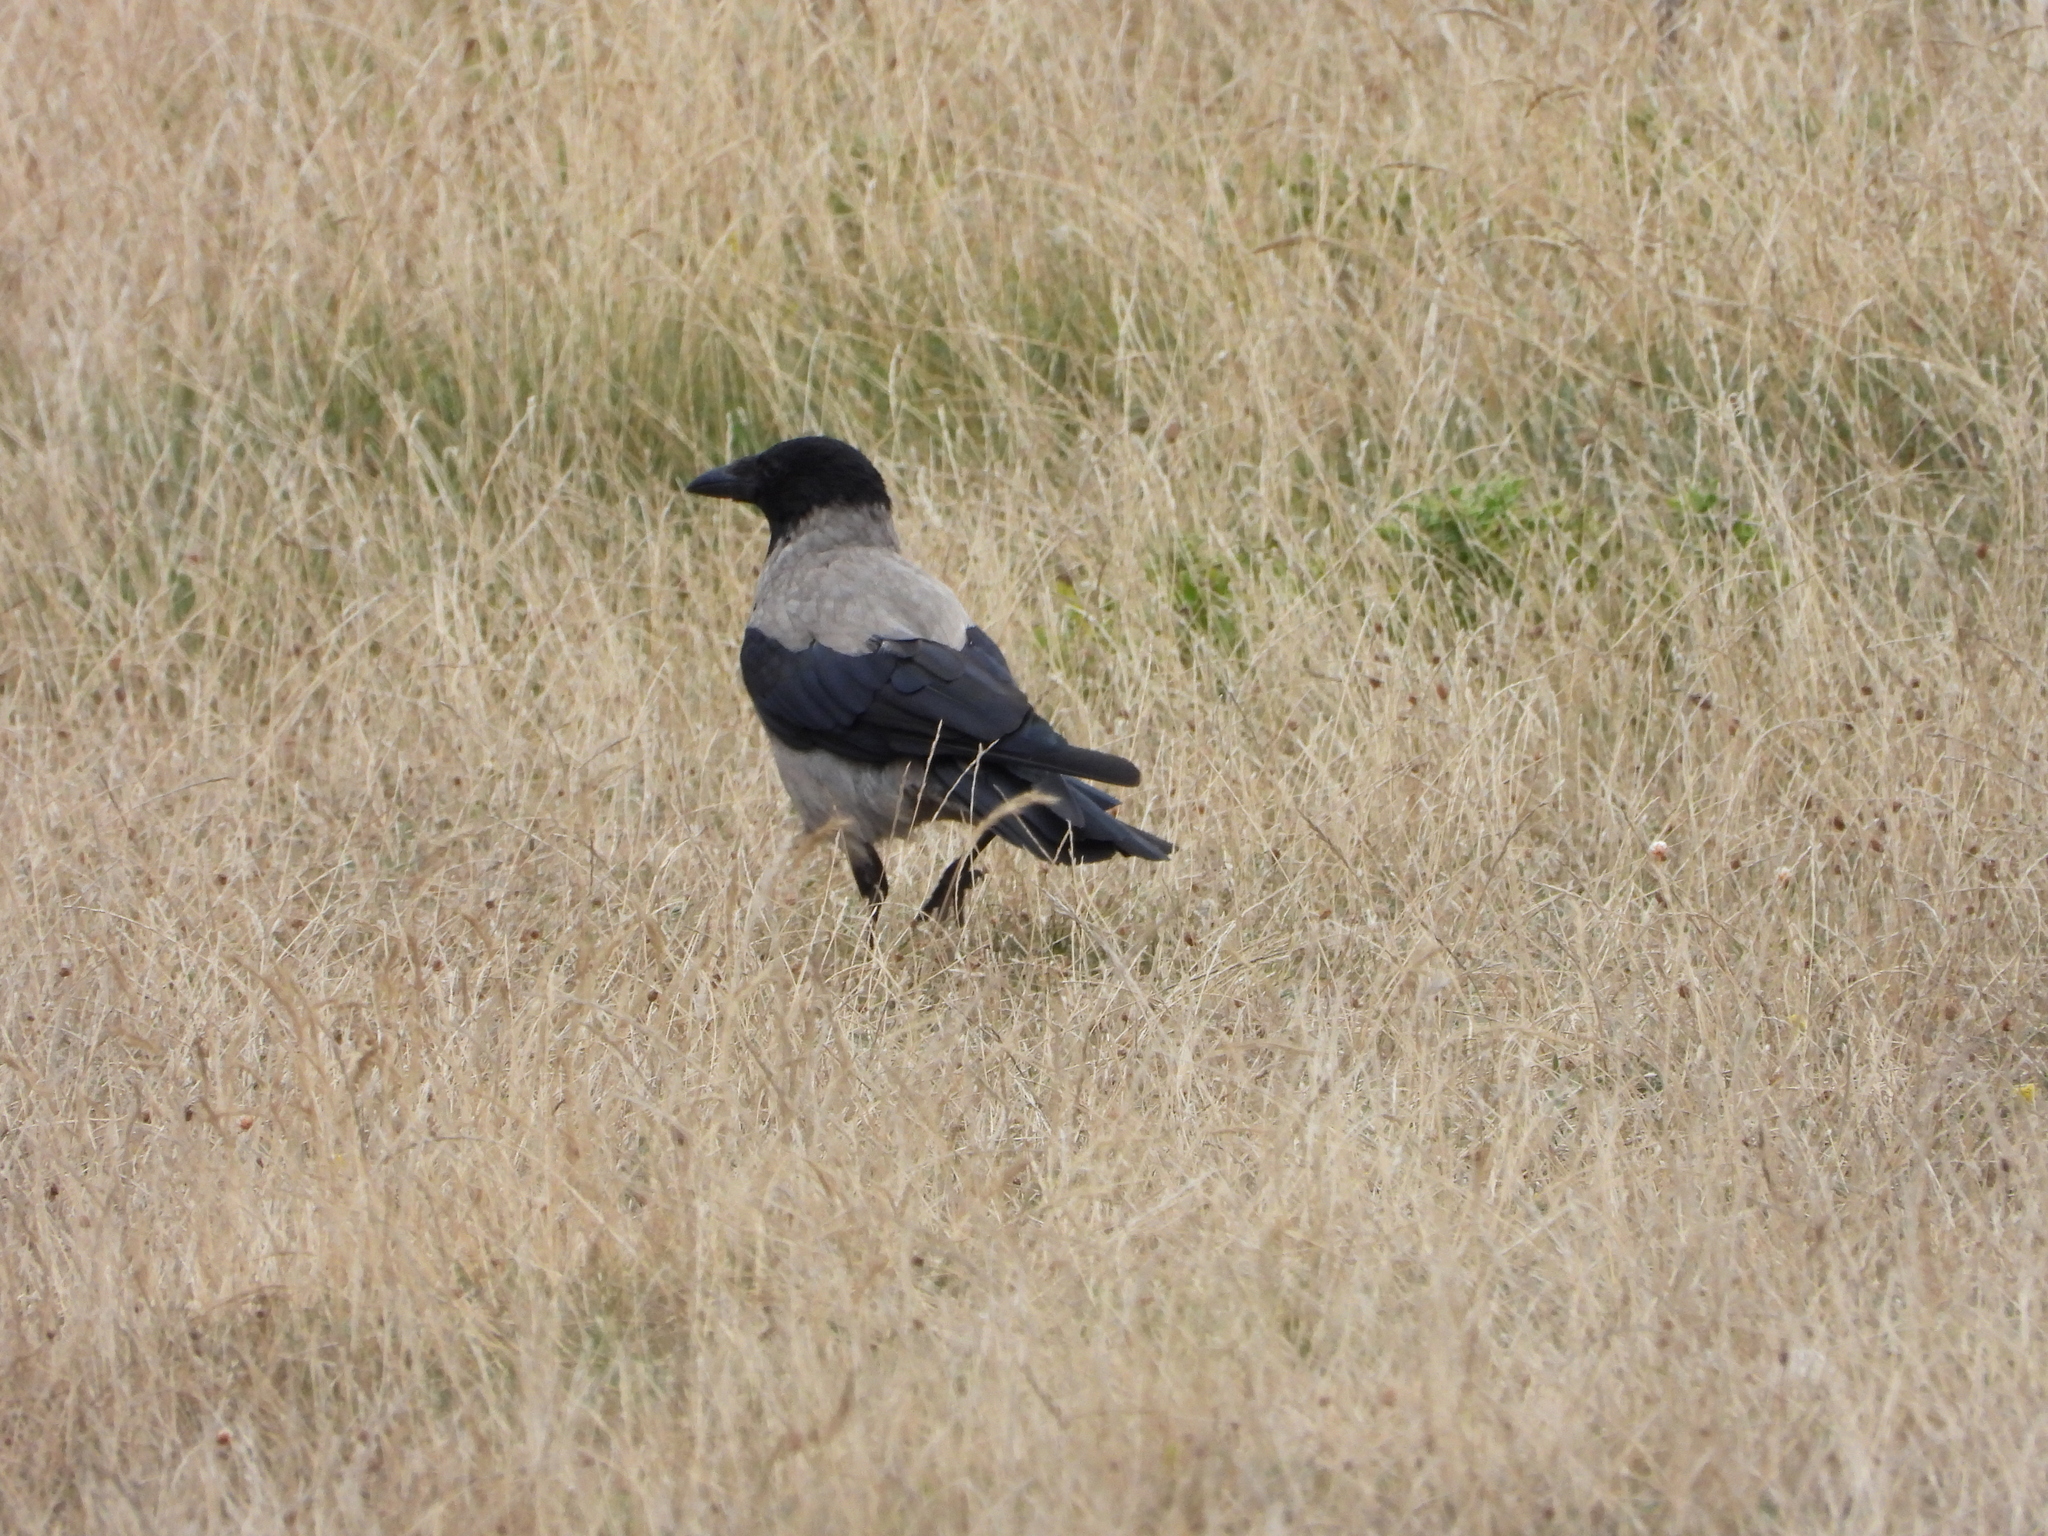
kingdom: Animalia
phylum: Chordata
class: Aves
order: Passeriformes
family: Corvidae
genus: Corvus
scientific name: Corvus cornix
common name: Hooded crow
